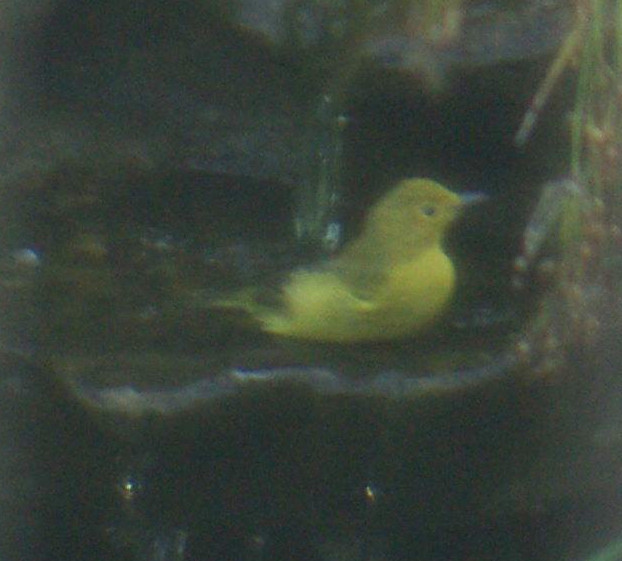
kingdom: Animalia
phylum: Chordata
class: Aves
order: Passeriformes
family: Parulidae
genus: Setophaga
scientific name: Setophaga petechia
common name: Yellow warbler
